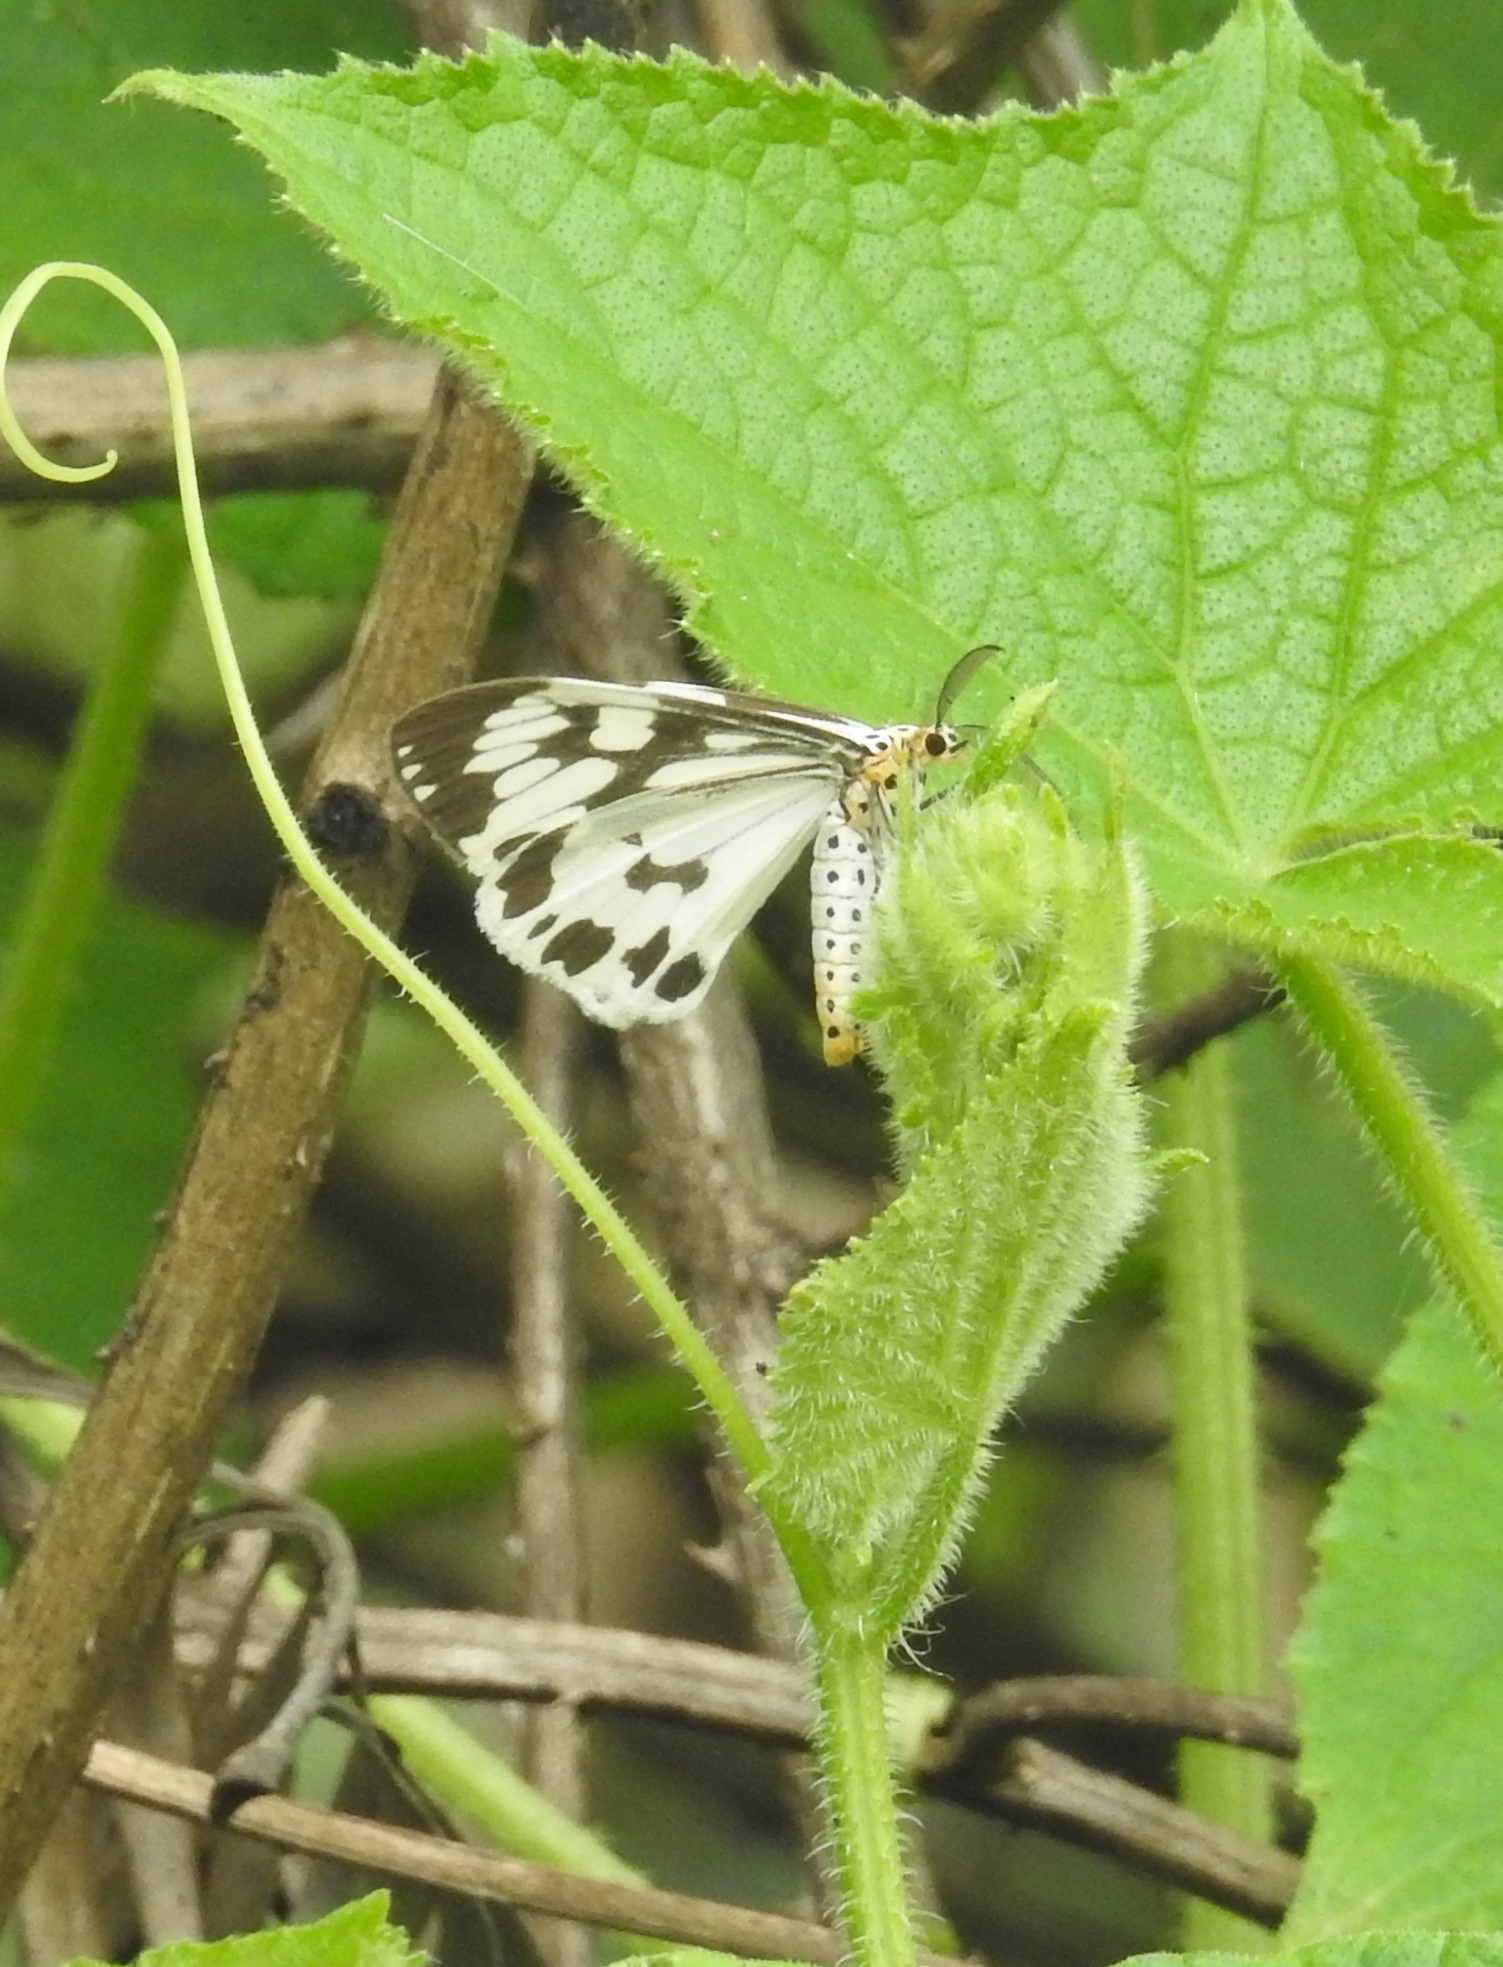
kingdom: Animalia
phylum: Arthropoda
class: Insecta
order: Lepidoptera
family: Erebidae
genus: Nyctemera
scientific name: Nyctemera adversata
